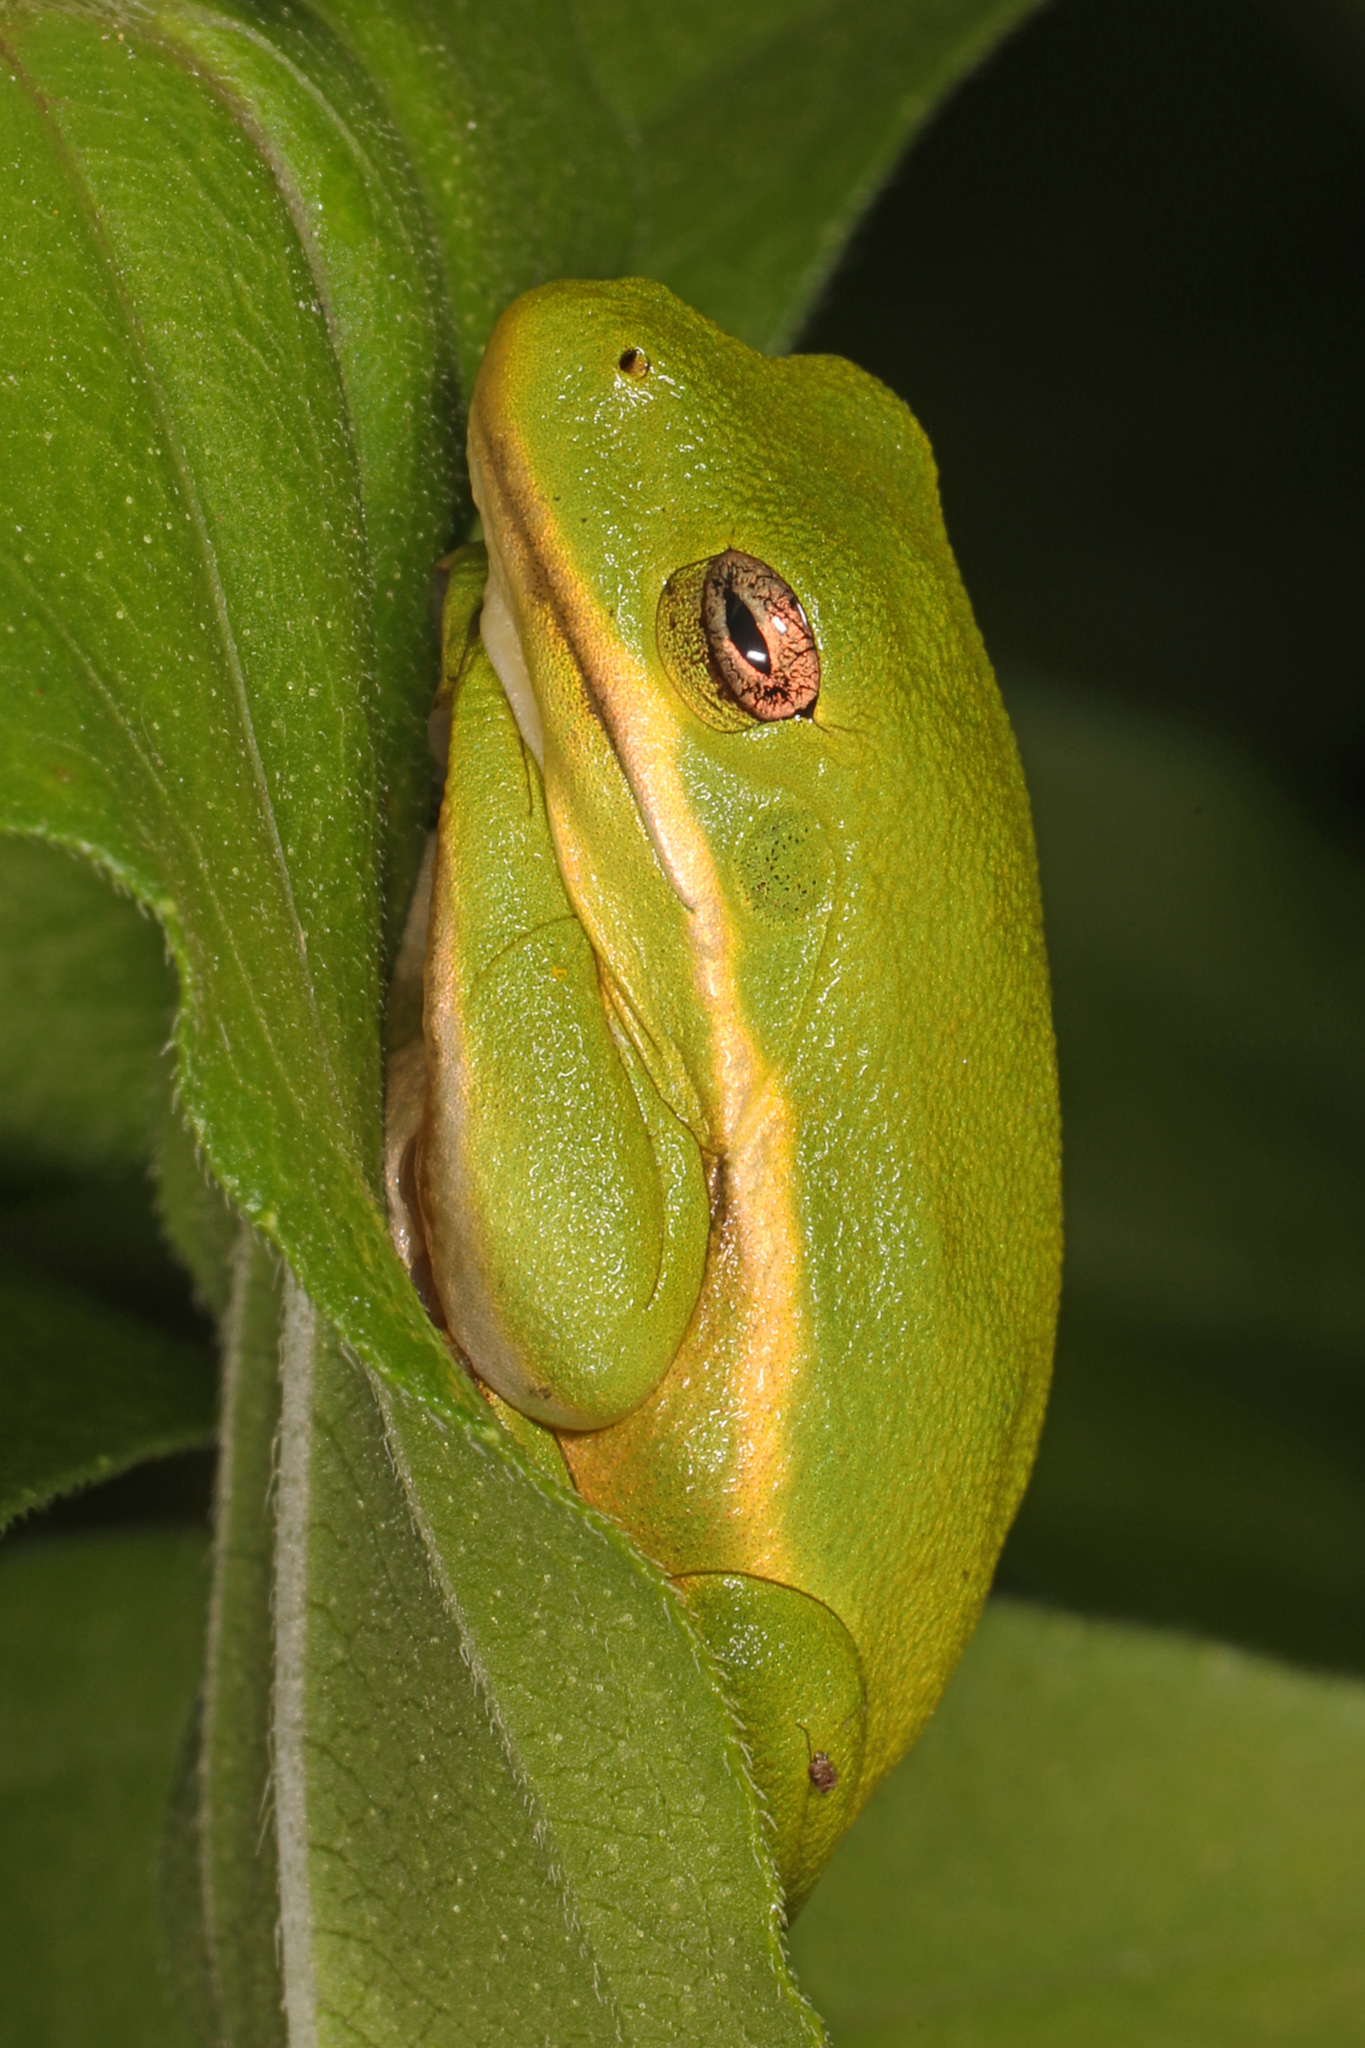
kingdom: Animalia
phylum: Chordata
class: Amphibia
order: Anura
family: Hylidae
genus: Dryophytes
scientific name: Dryophytes cinereus
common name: Green treefrog
